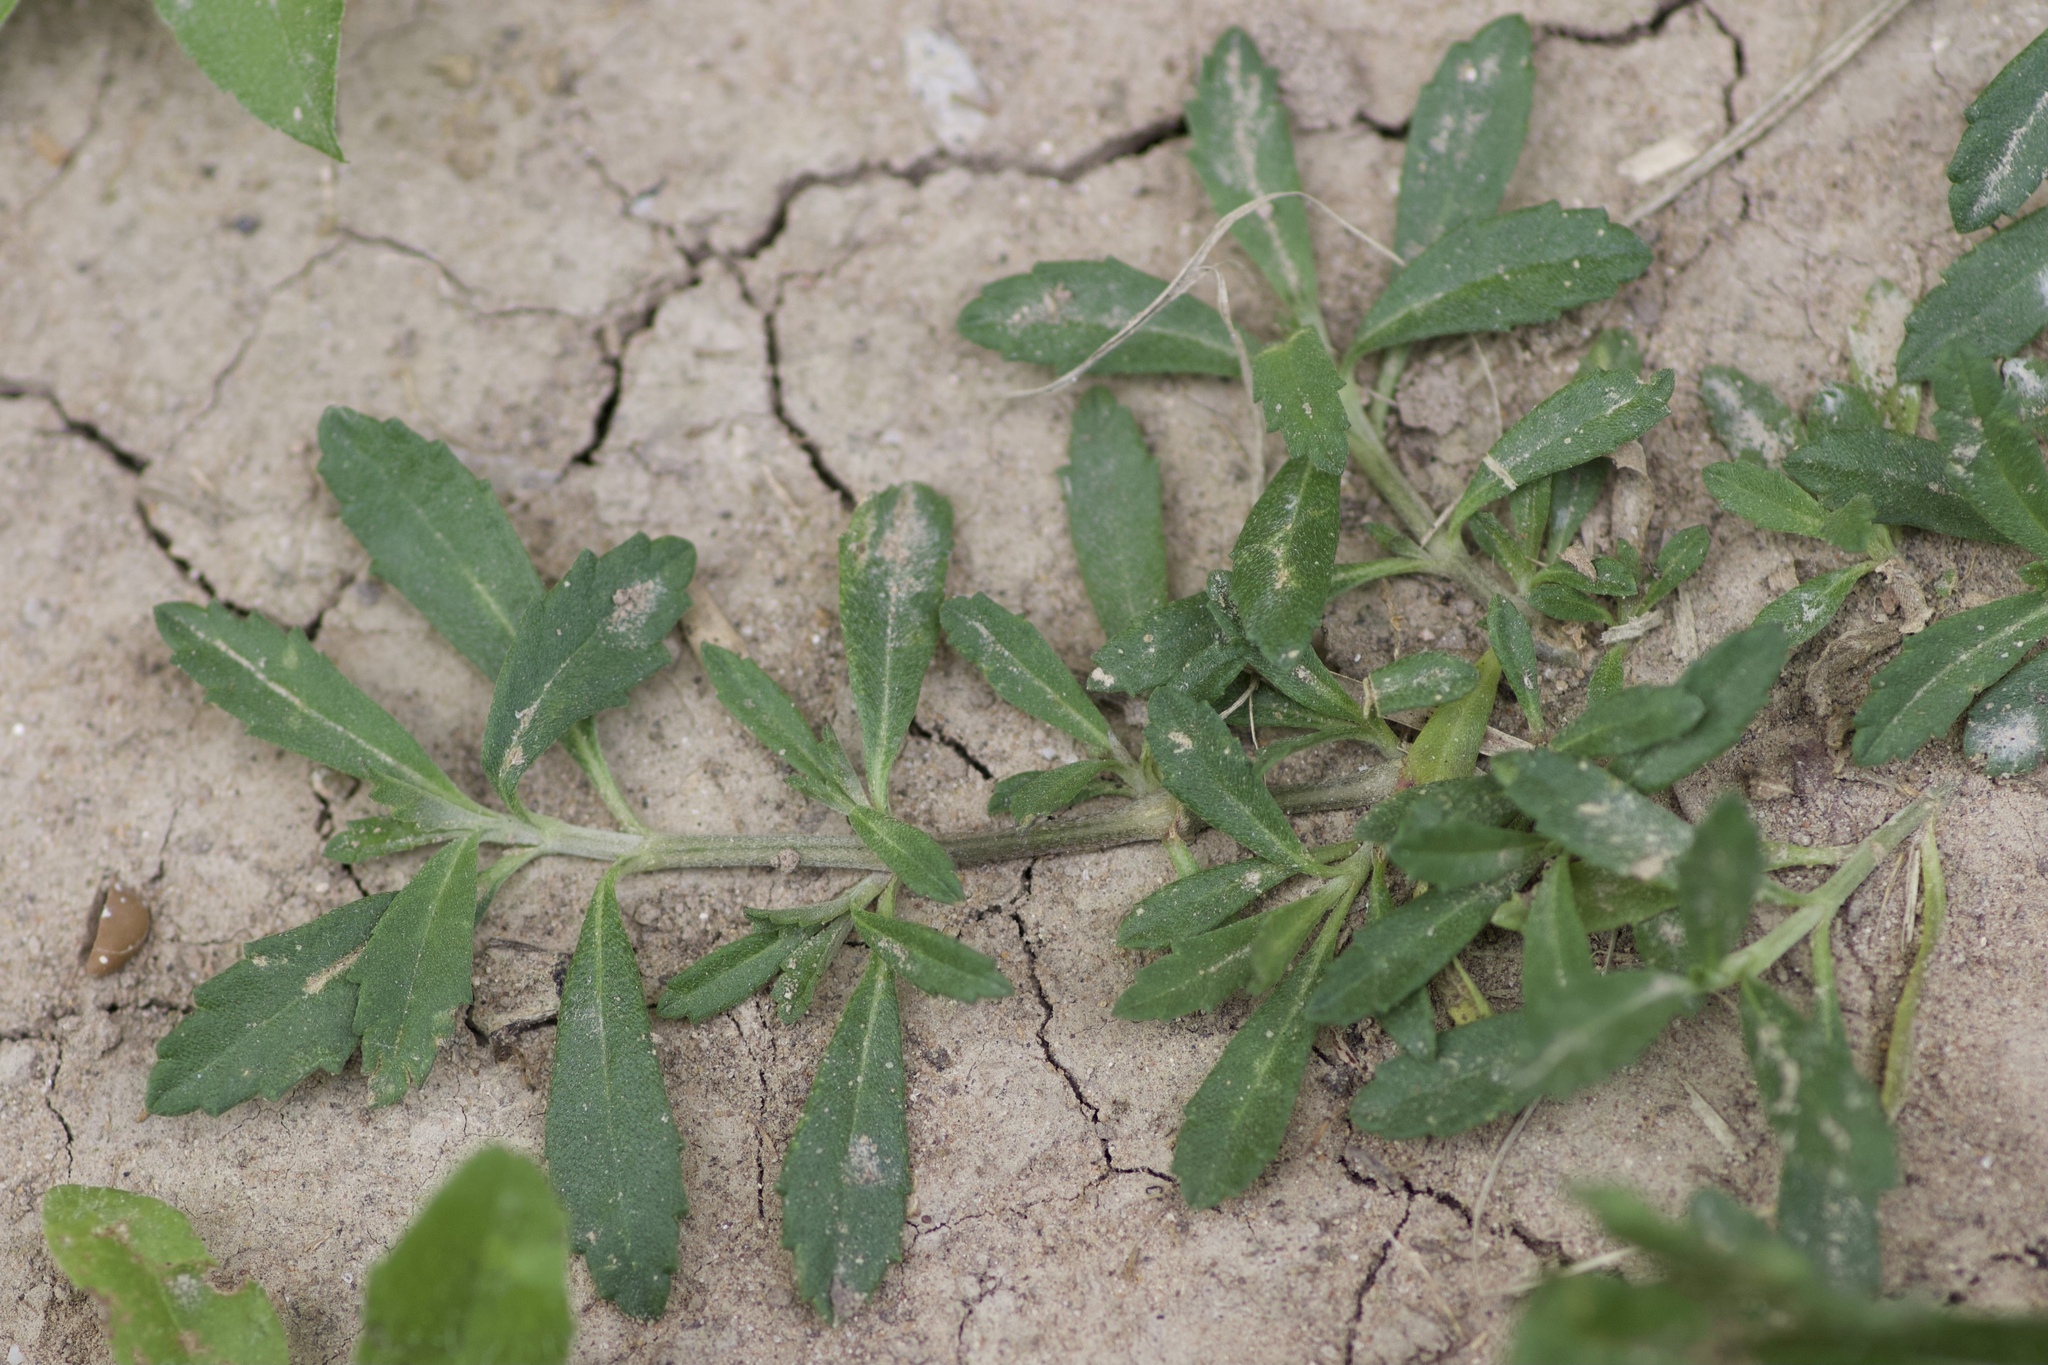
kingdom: Plantae
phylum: Tracheophyta
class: Magnoliopsida
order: Lamiales
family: Verbenaceae
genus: Phyla
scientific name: Phyla nodiflora
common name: Frogfruit
